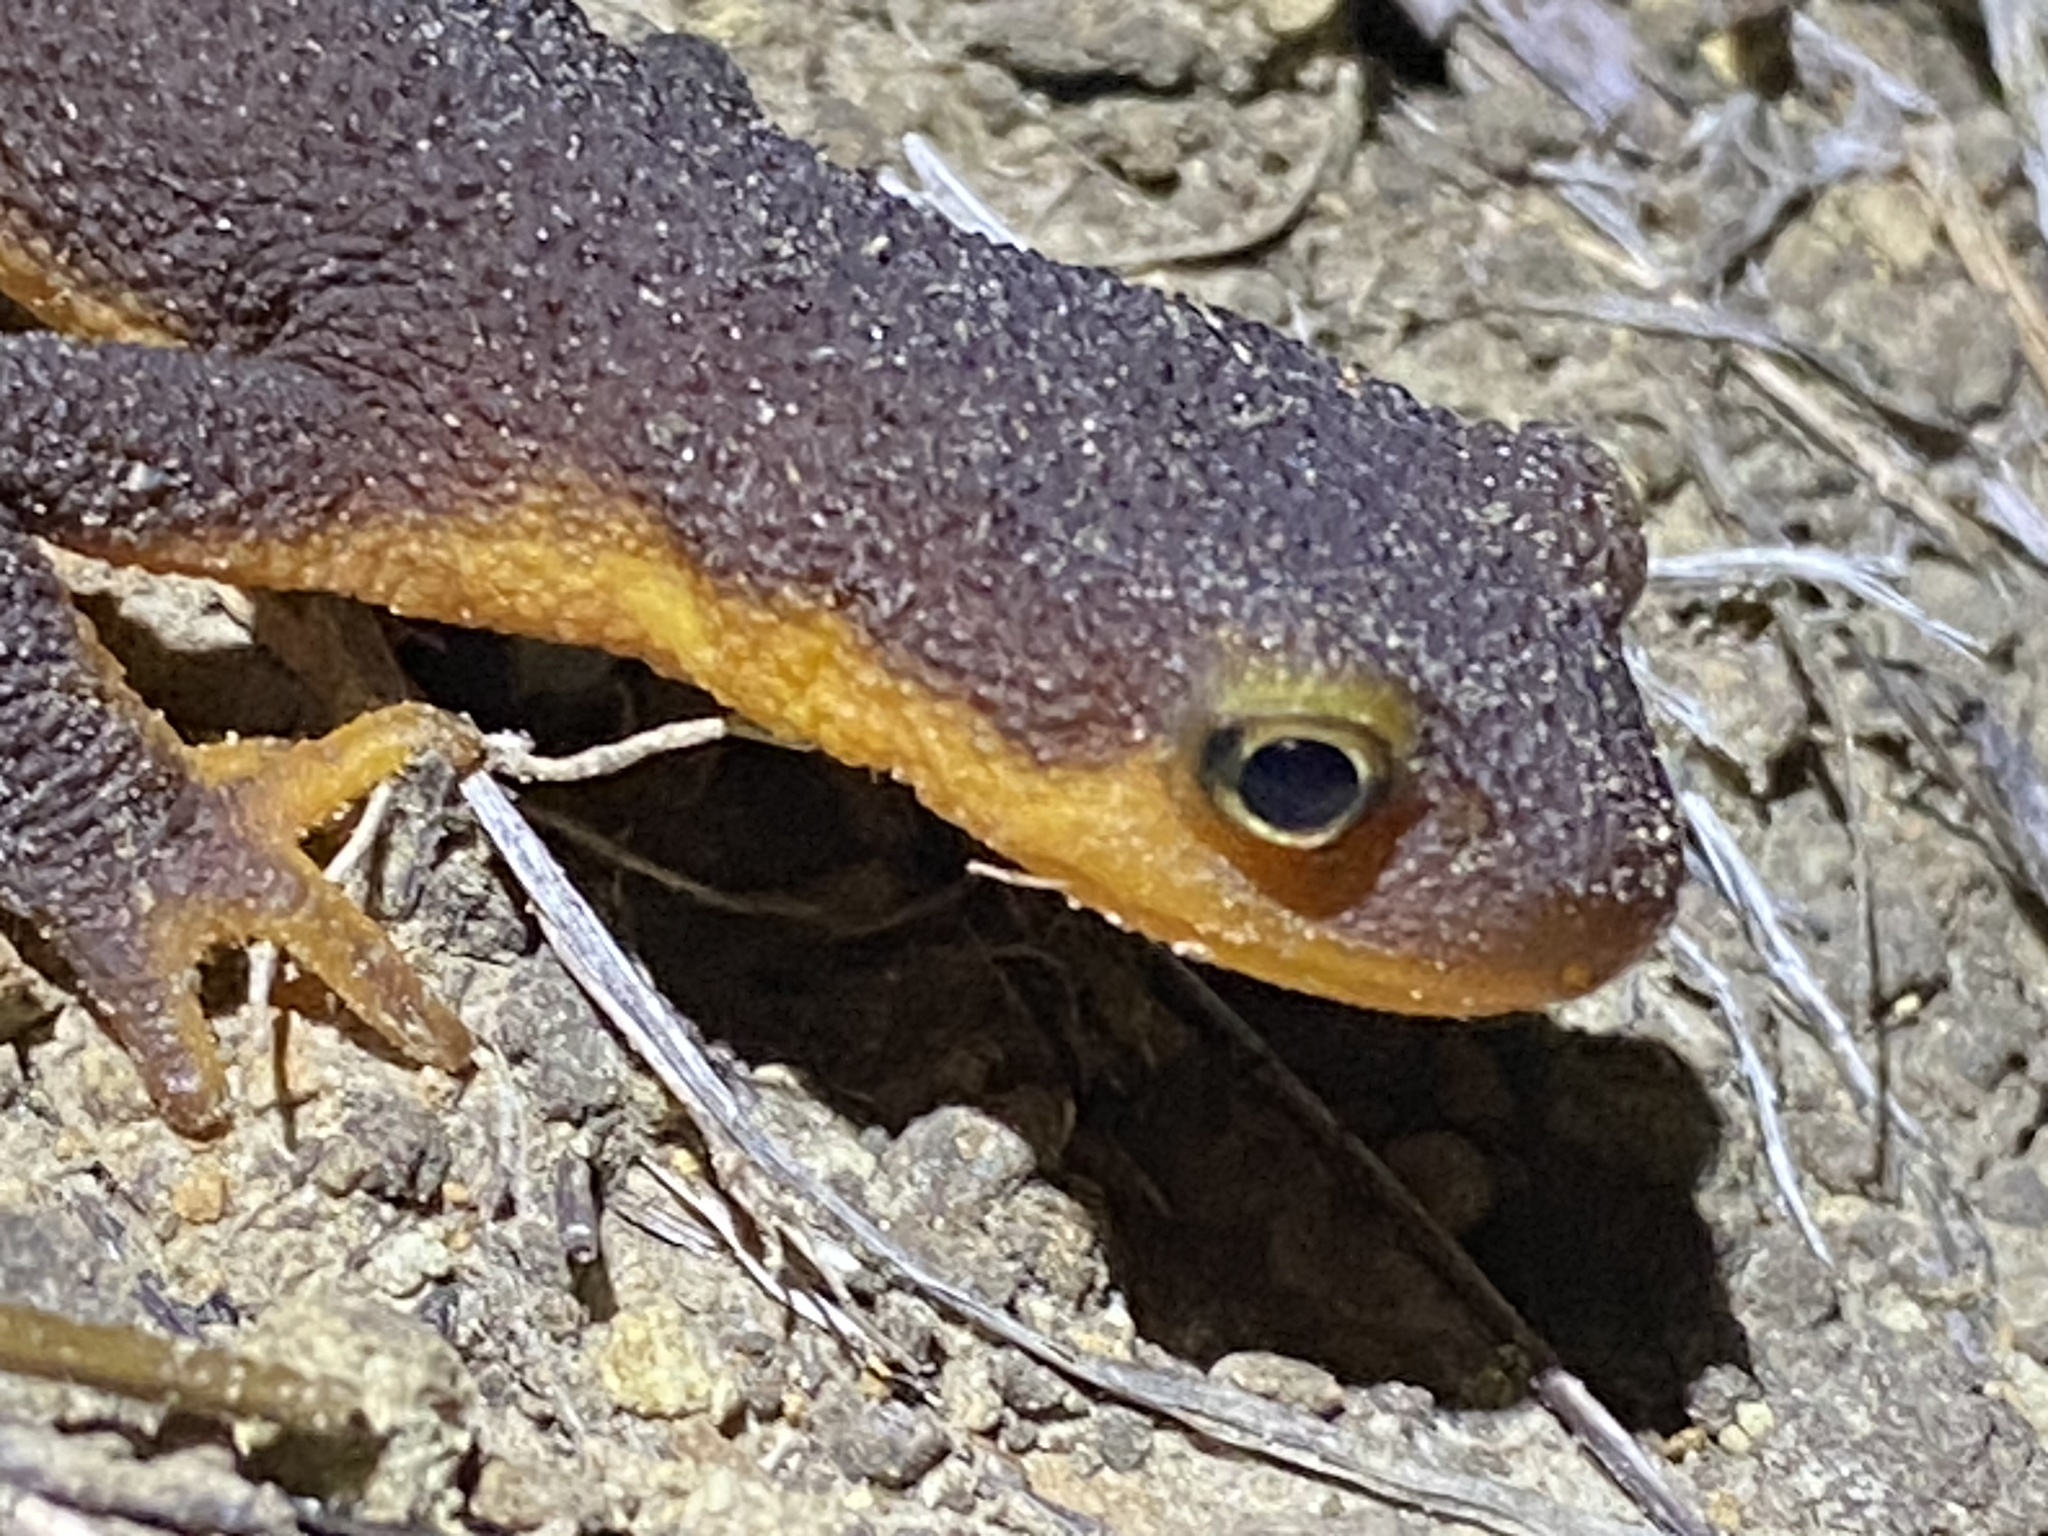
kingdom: Animalia
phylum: Chordata
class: Amphibia
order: Caudata
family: Salamandridae
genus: Taricha
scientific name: Taricha torosa
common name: California newt
